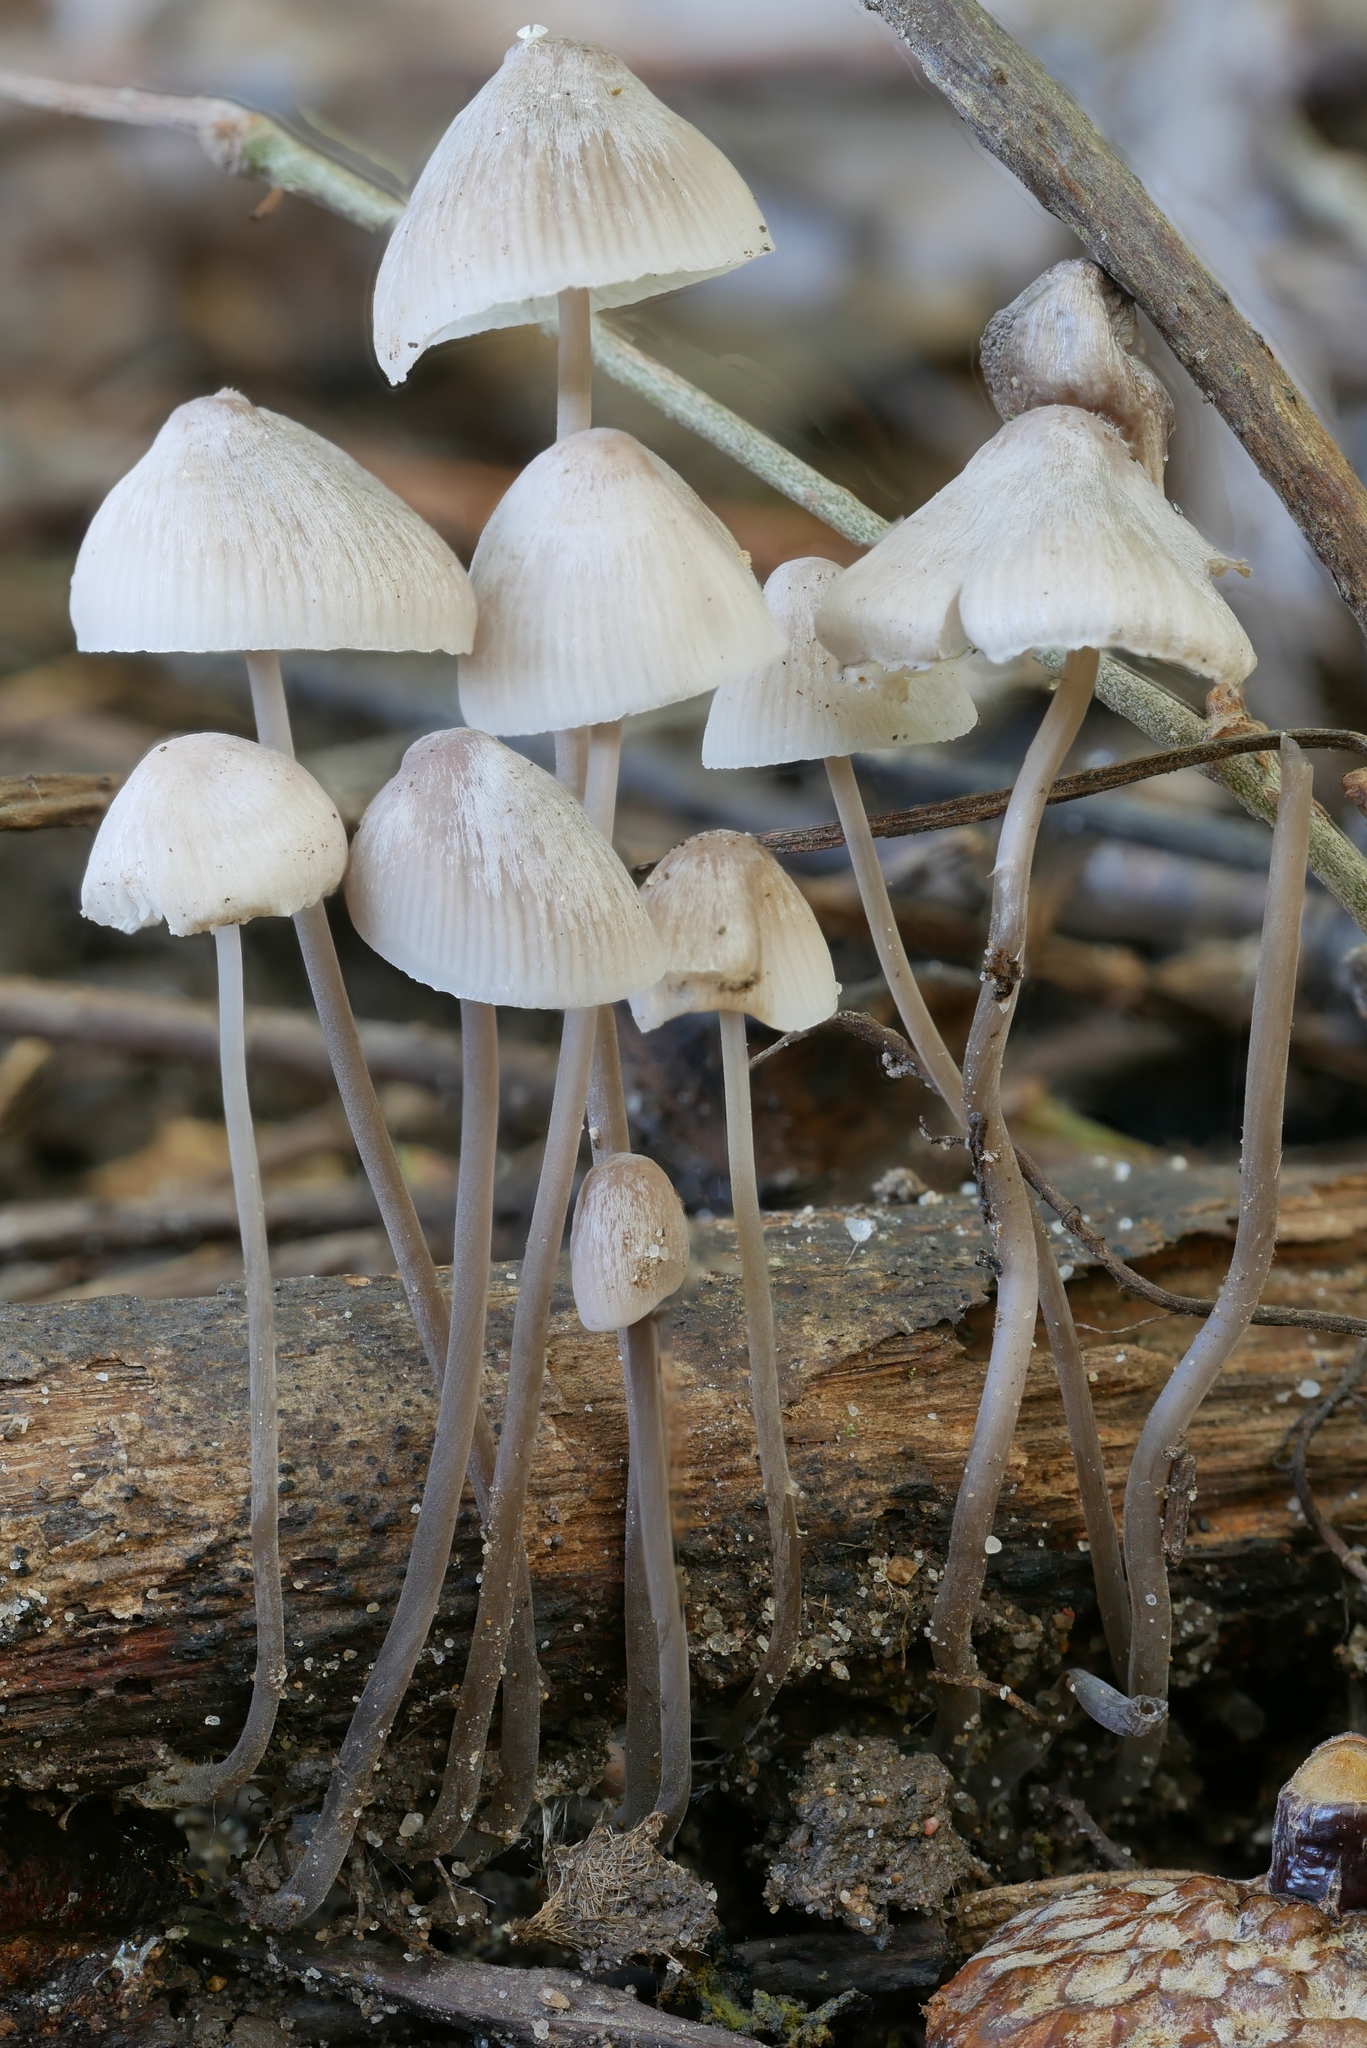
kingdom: Fungi
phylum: Basidiomycota
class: Agaricomycetes
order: Agaricales
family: Mycenaceae
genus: Mycena
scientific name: Mycena filopes
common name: Iodine bonnet
